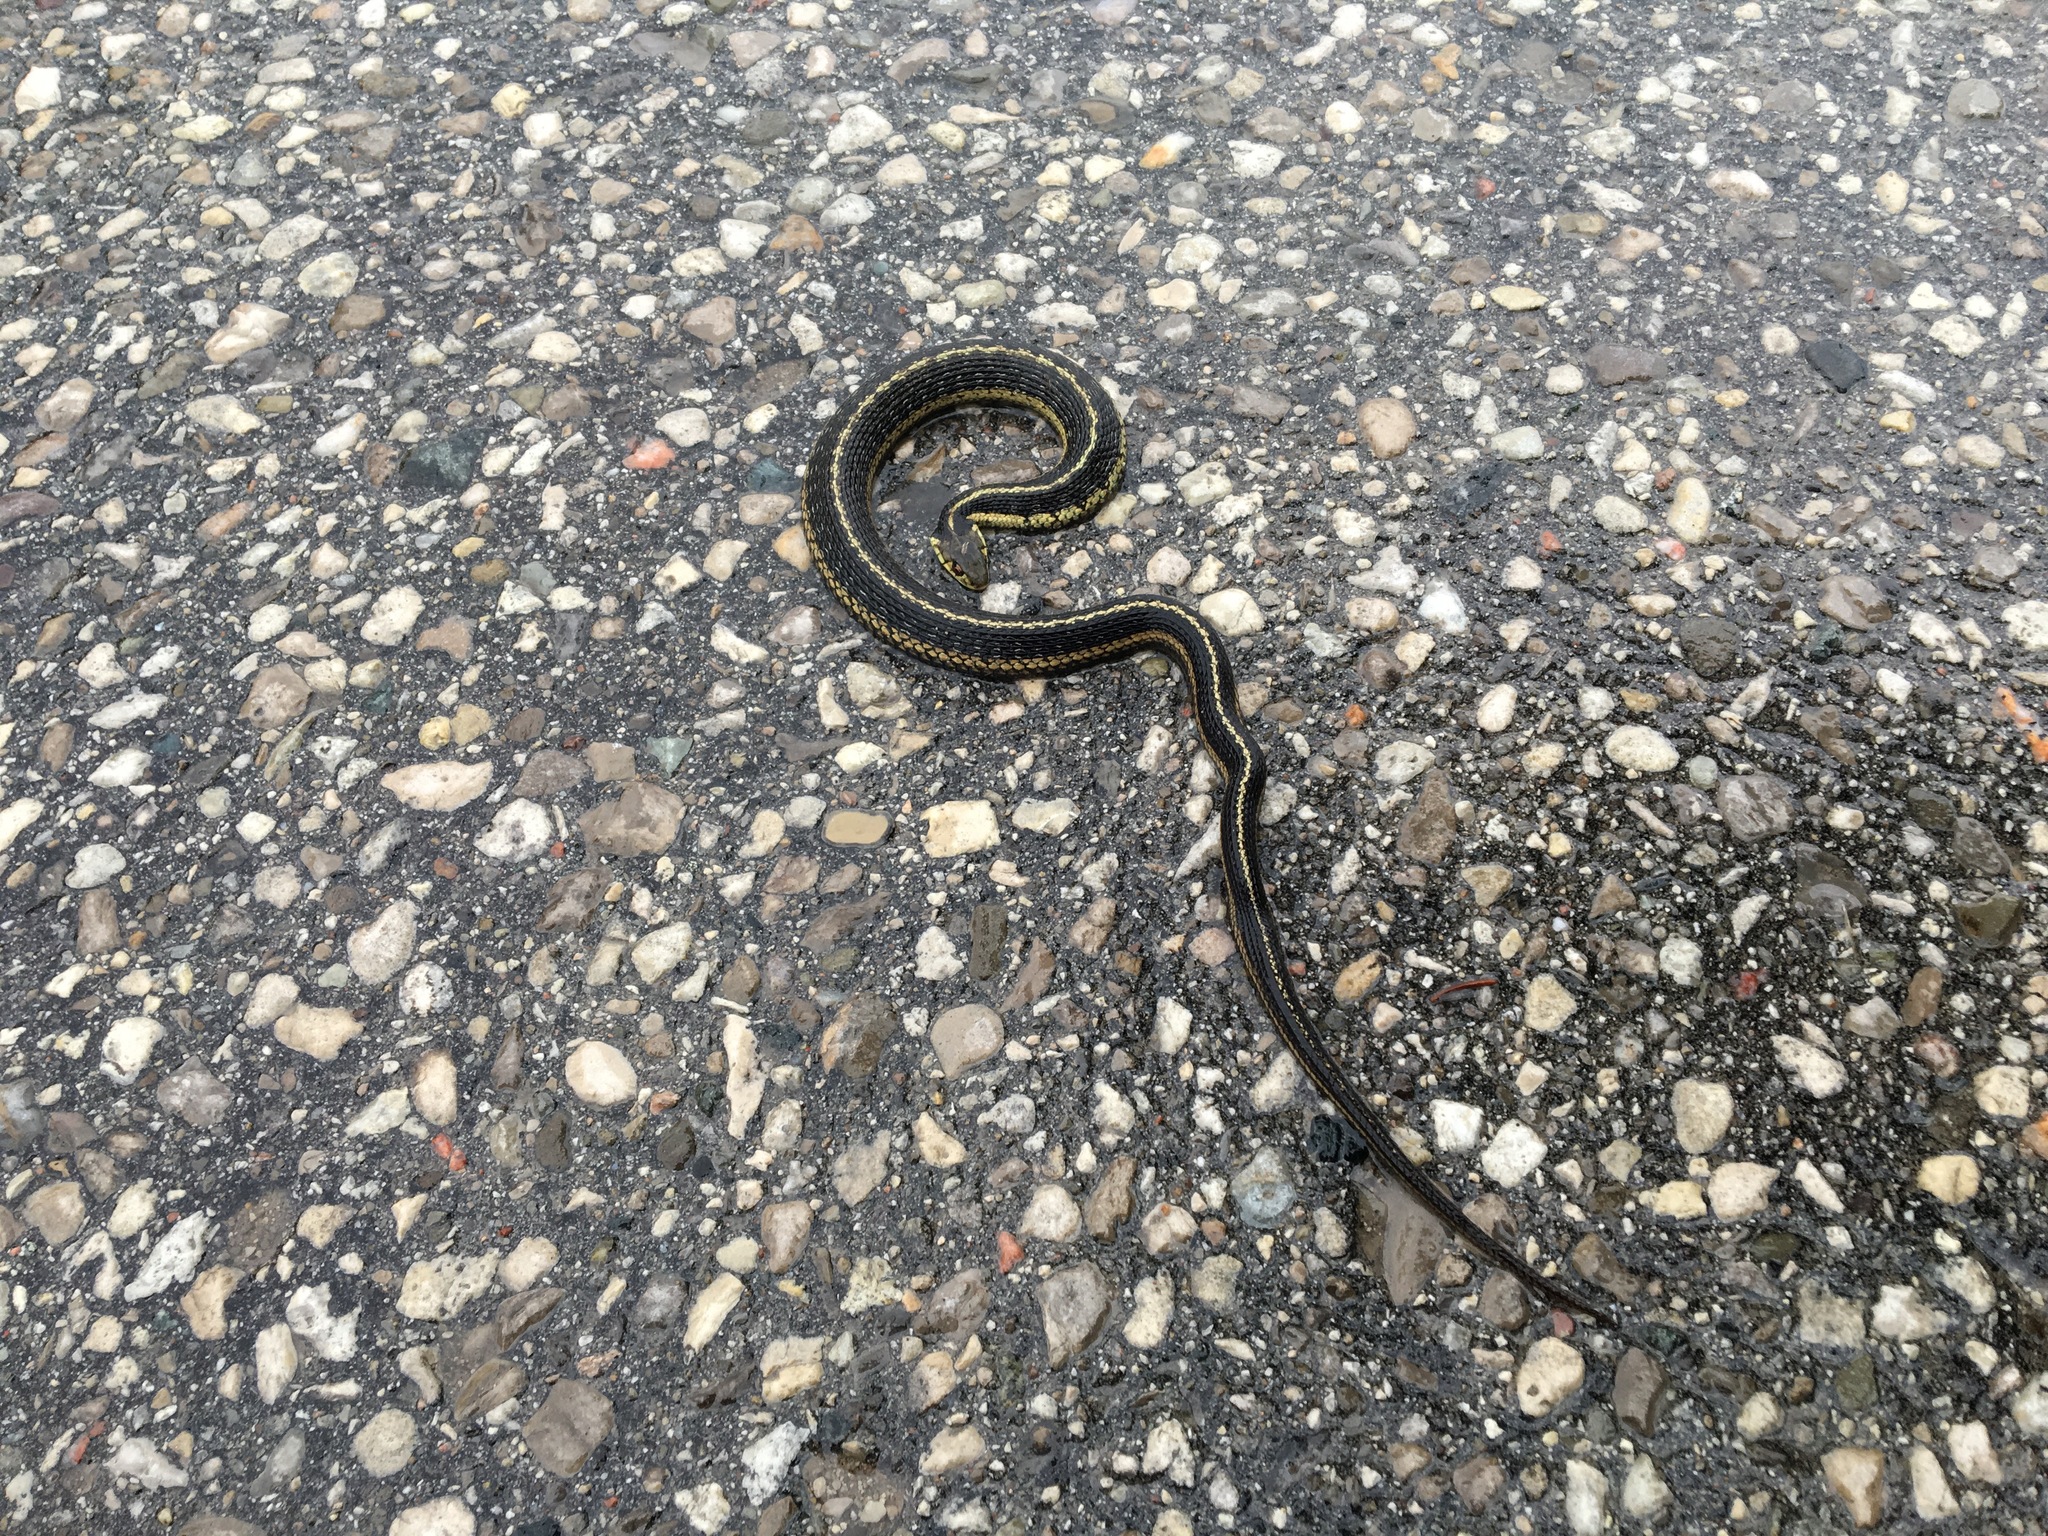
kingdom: Animalia
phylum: Chordata
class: Squamata
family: Colubridae
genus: Thamnophis
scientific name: Thamnophis sirtalis
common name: Common garter snake
